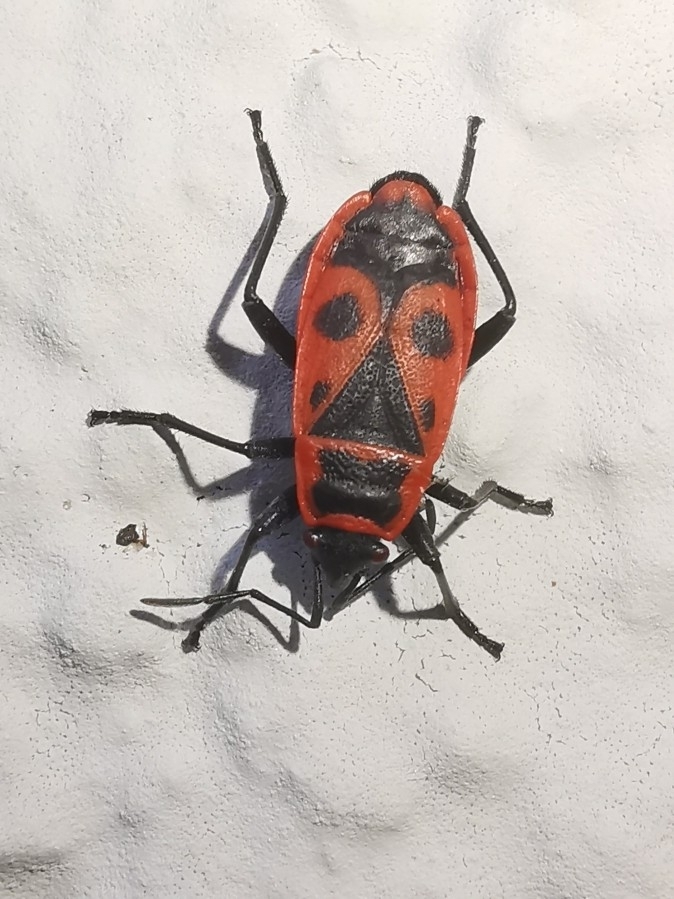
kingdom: Animalia
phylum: Arthropoda
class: Insecta
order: Hemiptera
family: Pyrrhocoridae
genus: Pyrrhocoris
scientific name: Pyrrhocoris apterus
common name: Firebug
